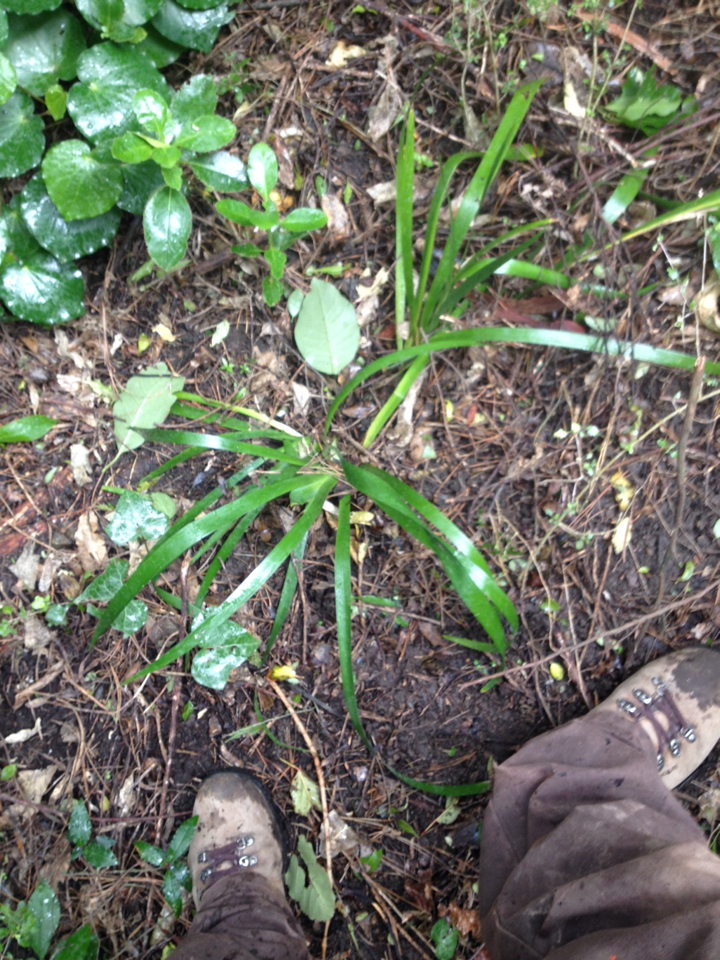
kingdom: Plantae
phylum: Tracheophyta
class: Liliopsida
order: Asparagales
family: Iridaceae
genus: Iris
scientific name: Iris foetidissima
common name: Stinking iris
